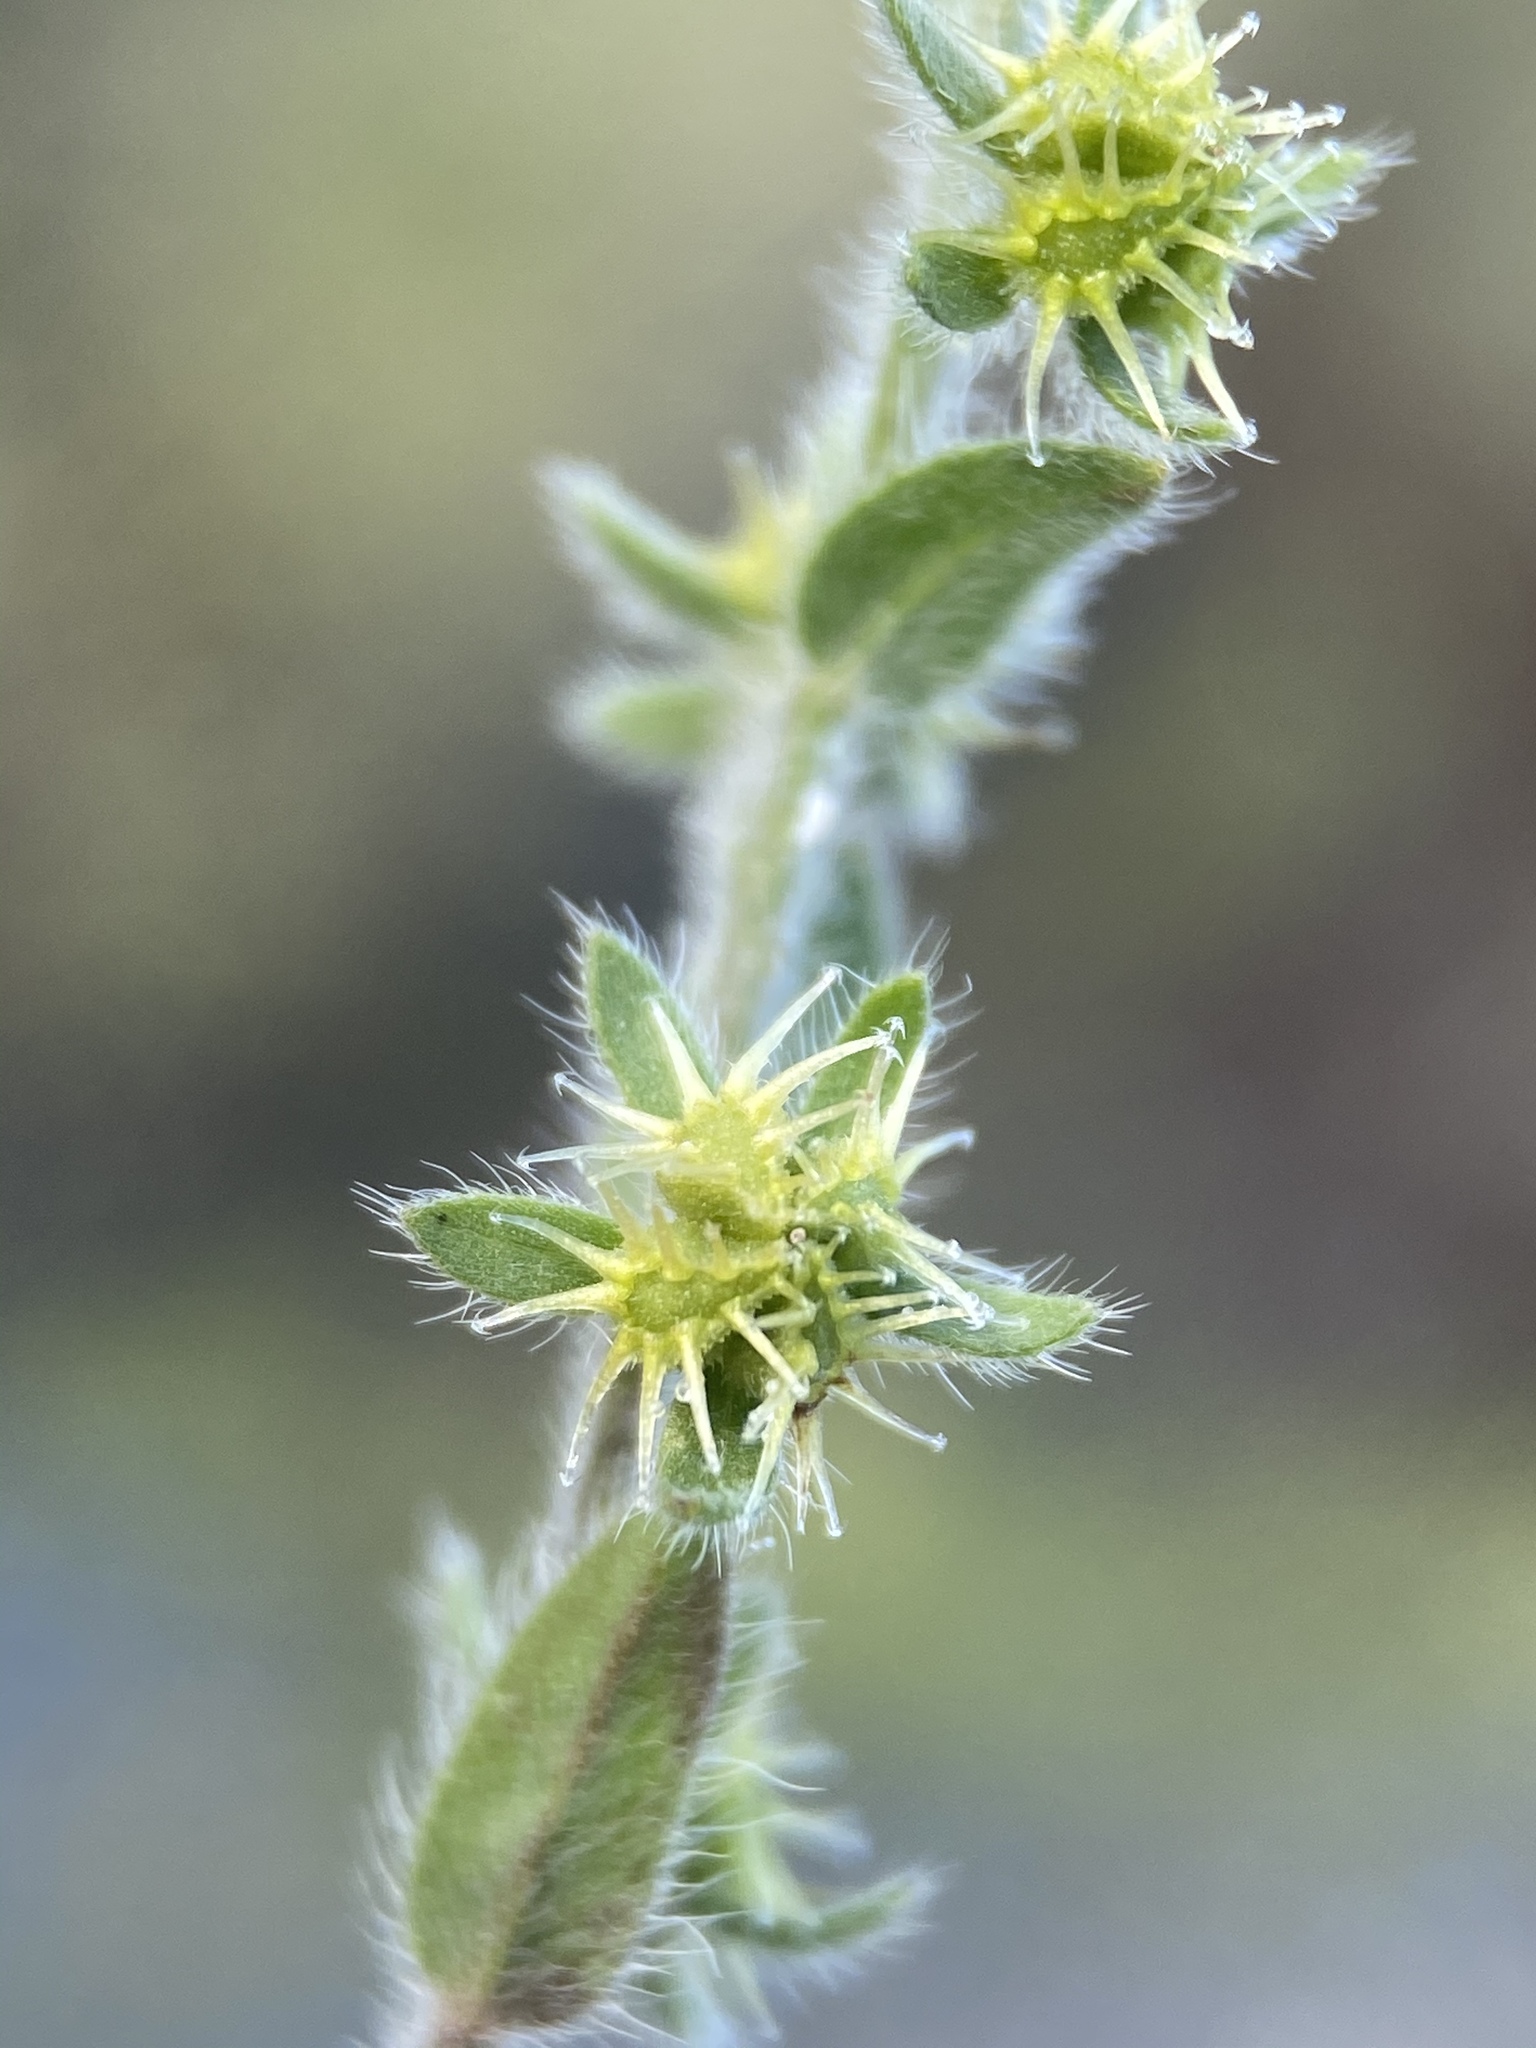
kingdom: Plantae
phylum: Tracheophyta
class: Magnoliopsida
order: Boraginales
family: Boraginaceae
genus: Lappula
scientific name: Lappula occidentalis
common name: Western stickseed
